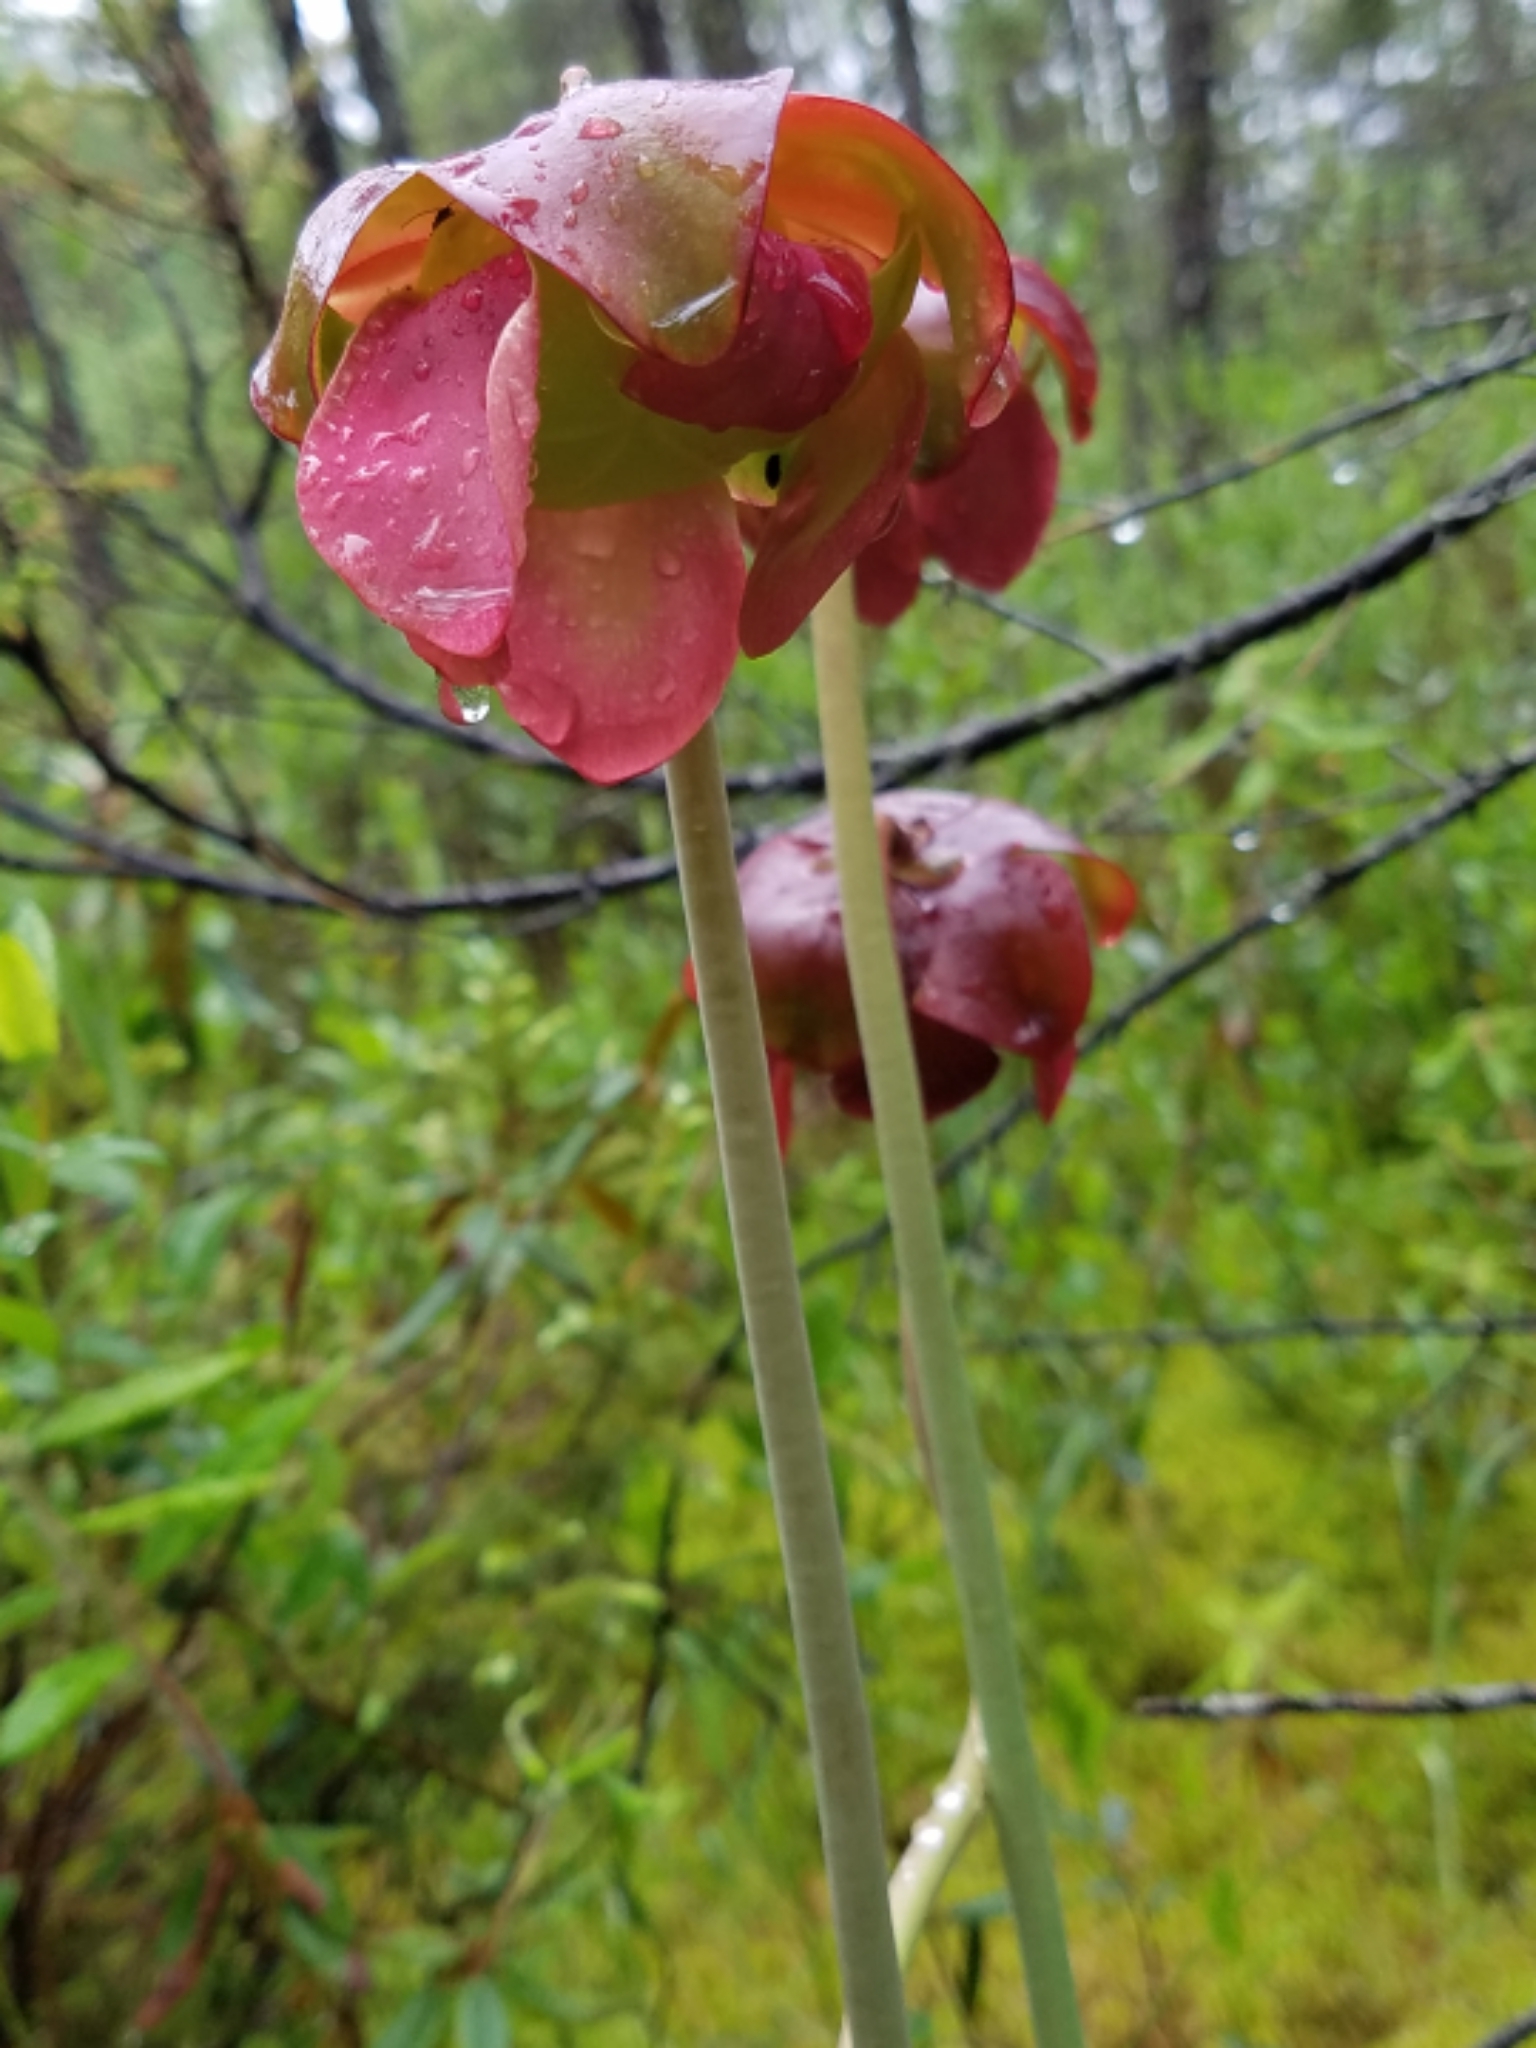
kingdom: Plantae
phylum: Tracheophyta
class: Magnoliopsida
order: Ericales
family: Sarraceniaceae
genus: Sarracenia
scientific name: Sarracenia purpurea
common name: Pitcherplant
